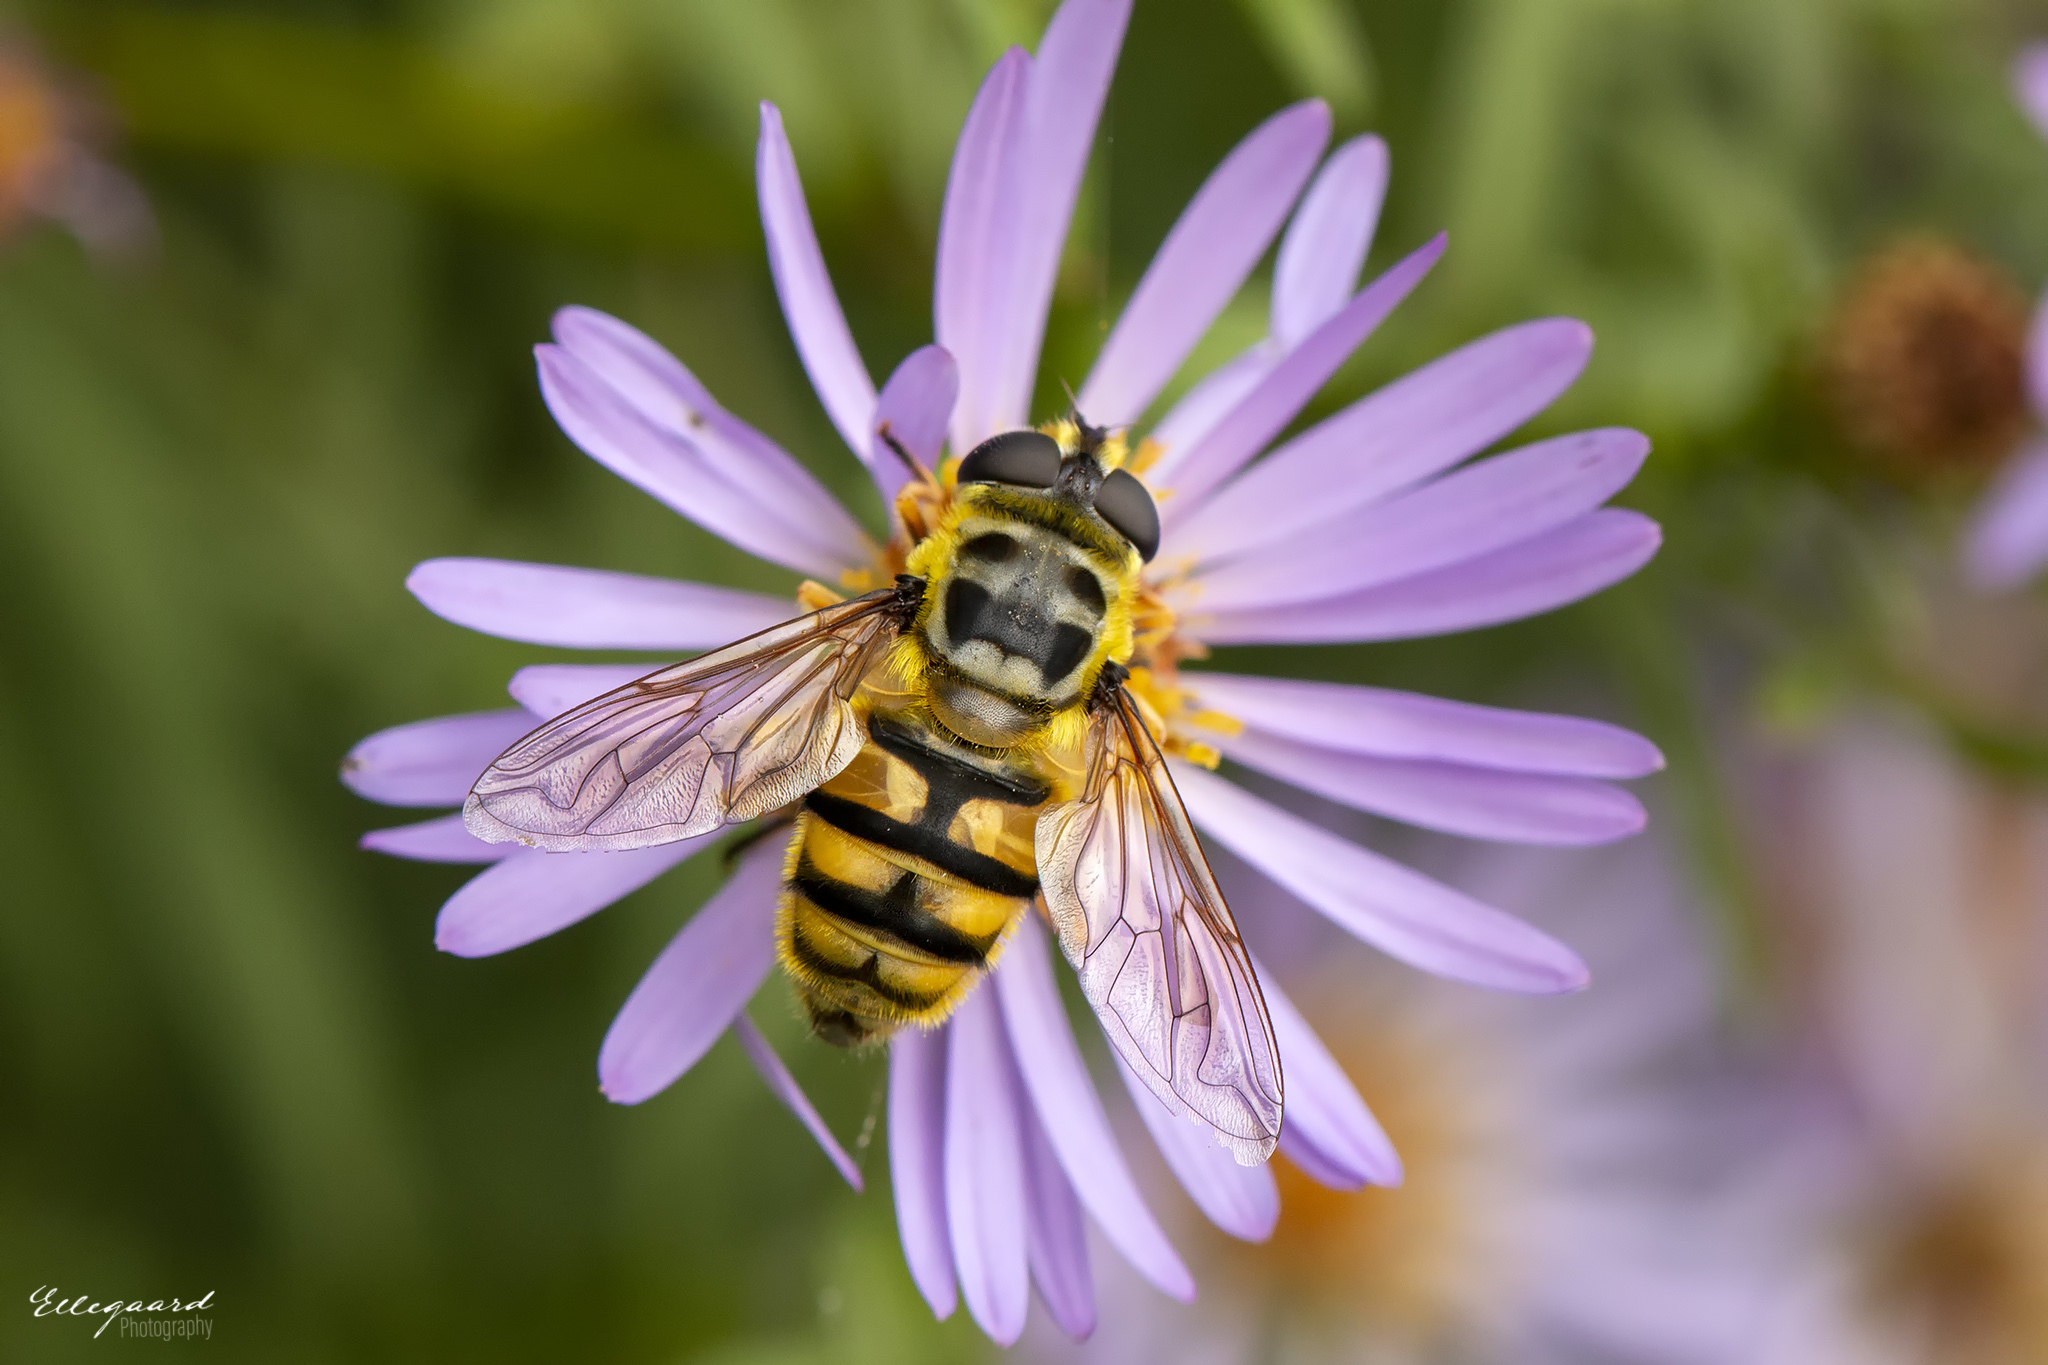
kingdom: Animalia
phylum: Arthropoda
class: Insecta
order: Diptera
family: Syrphidae
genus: Myathropa
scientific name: Myathropa florea
